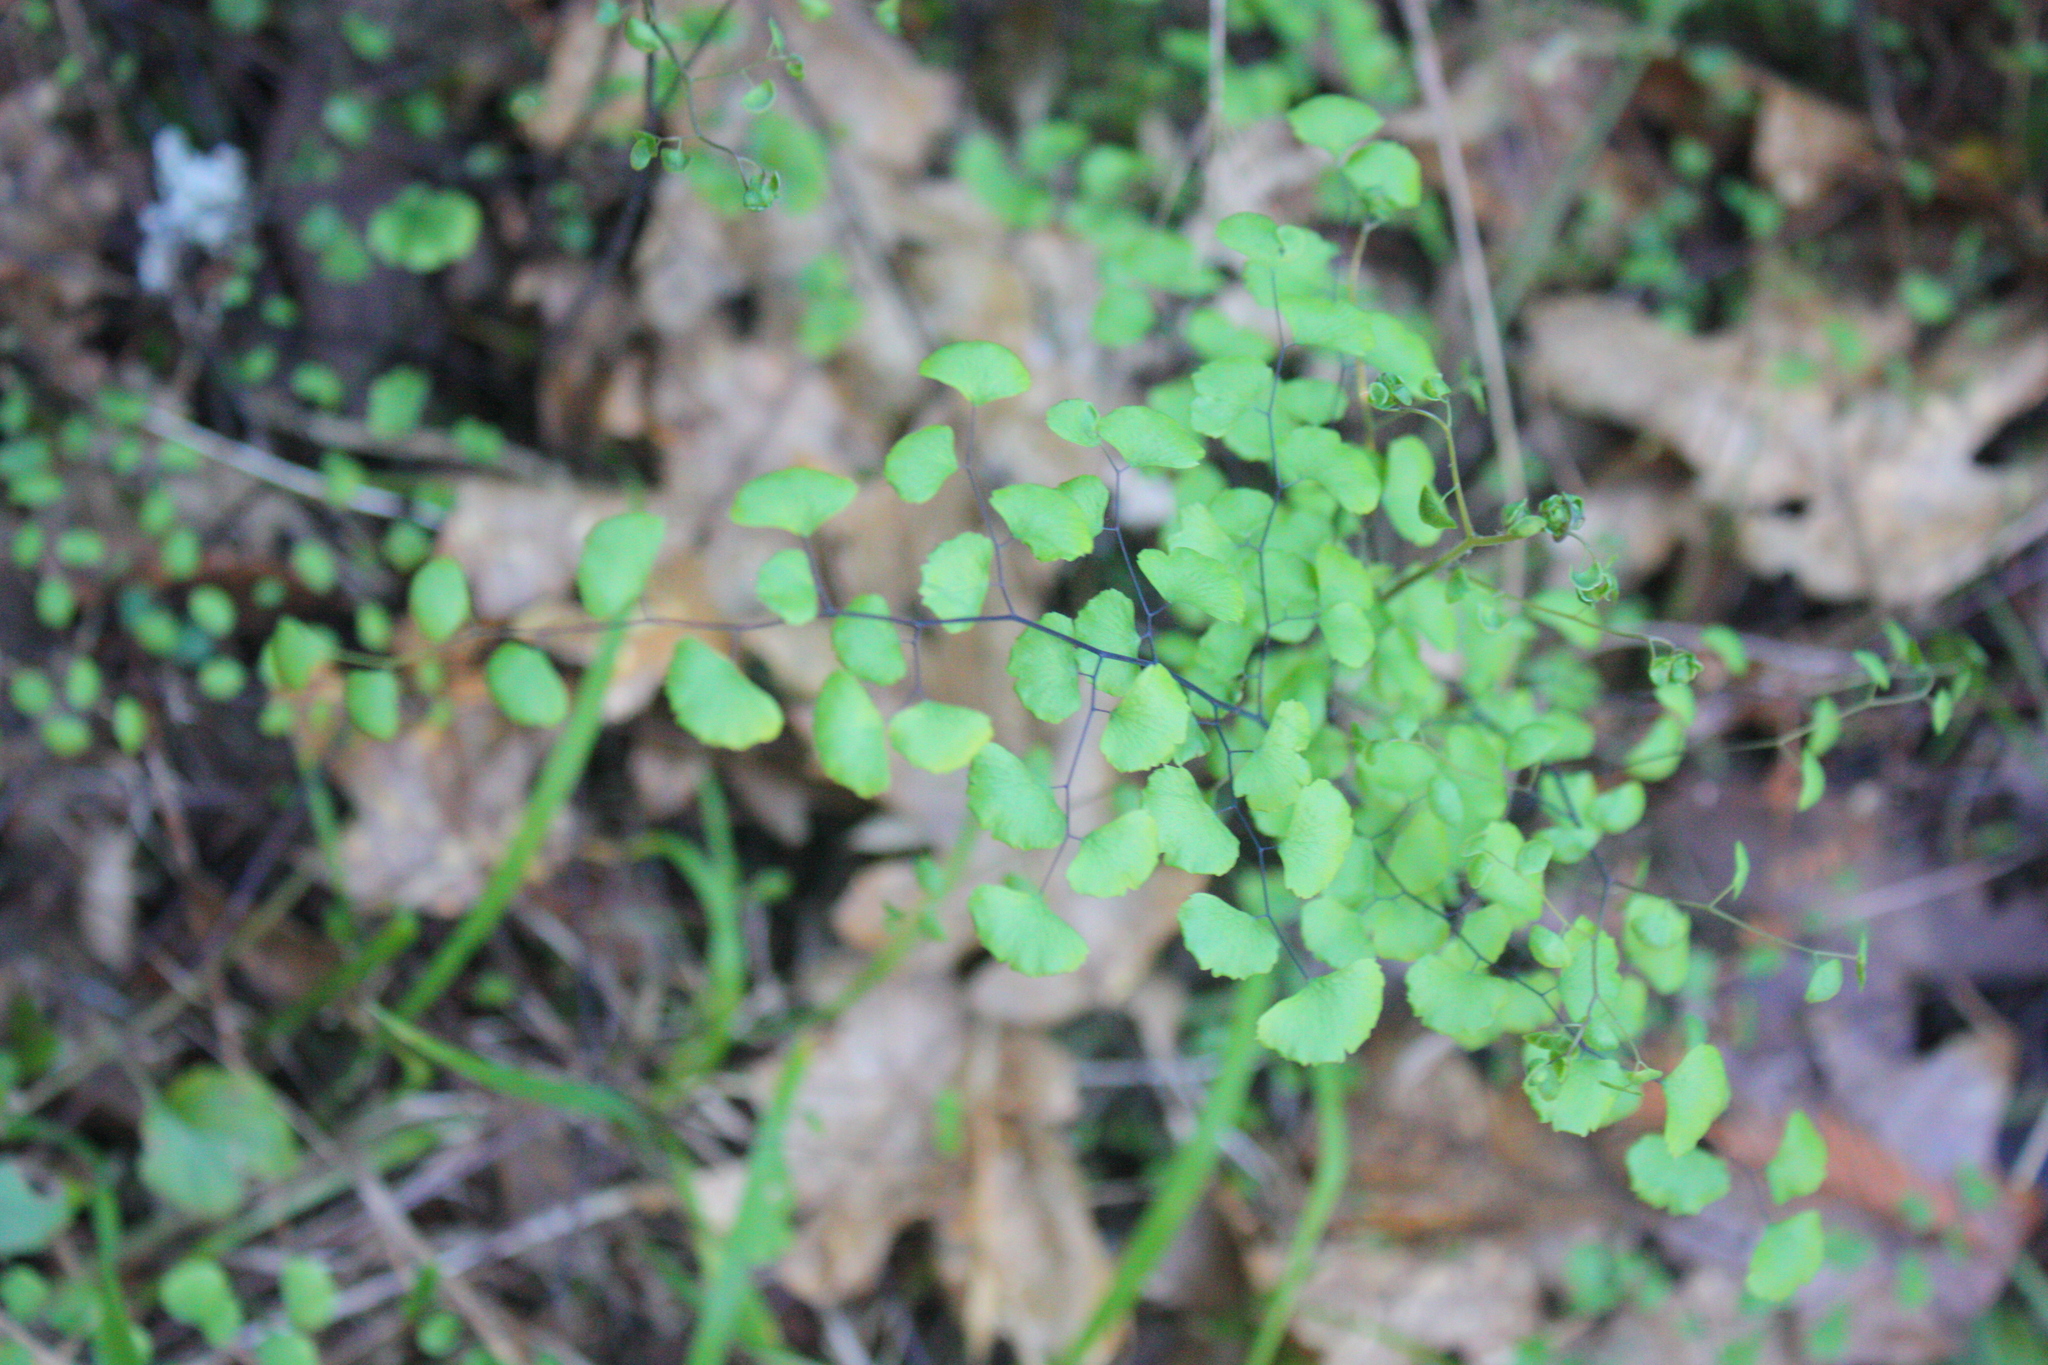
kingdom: Plantae
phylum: Tracheophyta
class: Polypodiopsida
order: Polypodiales
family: Pteridaceae
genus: Adiantum
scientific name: Adiantum jordanii
